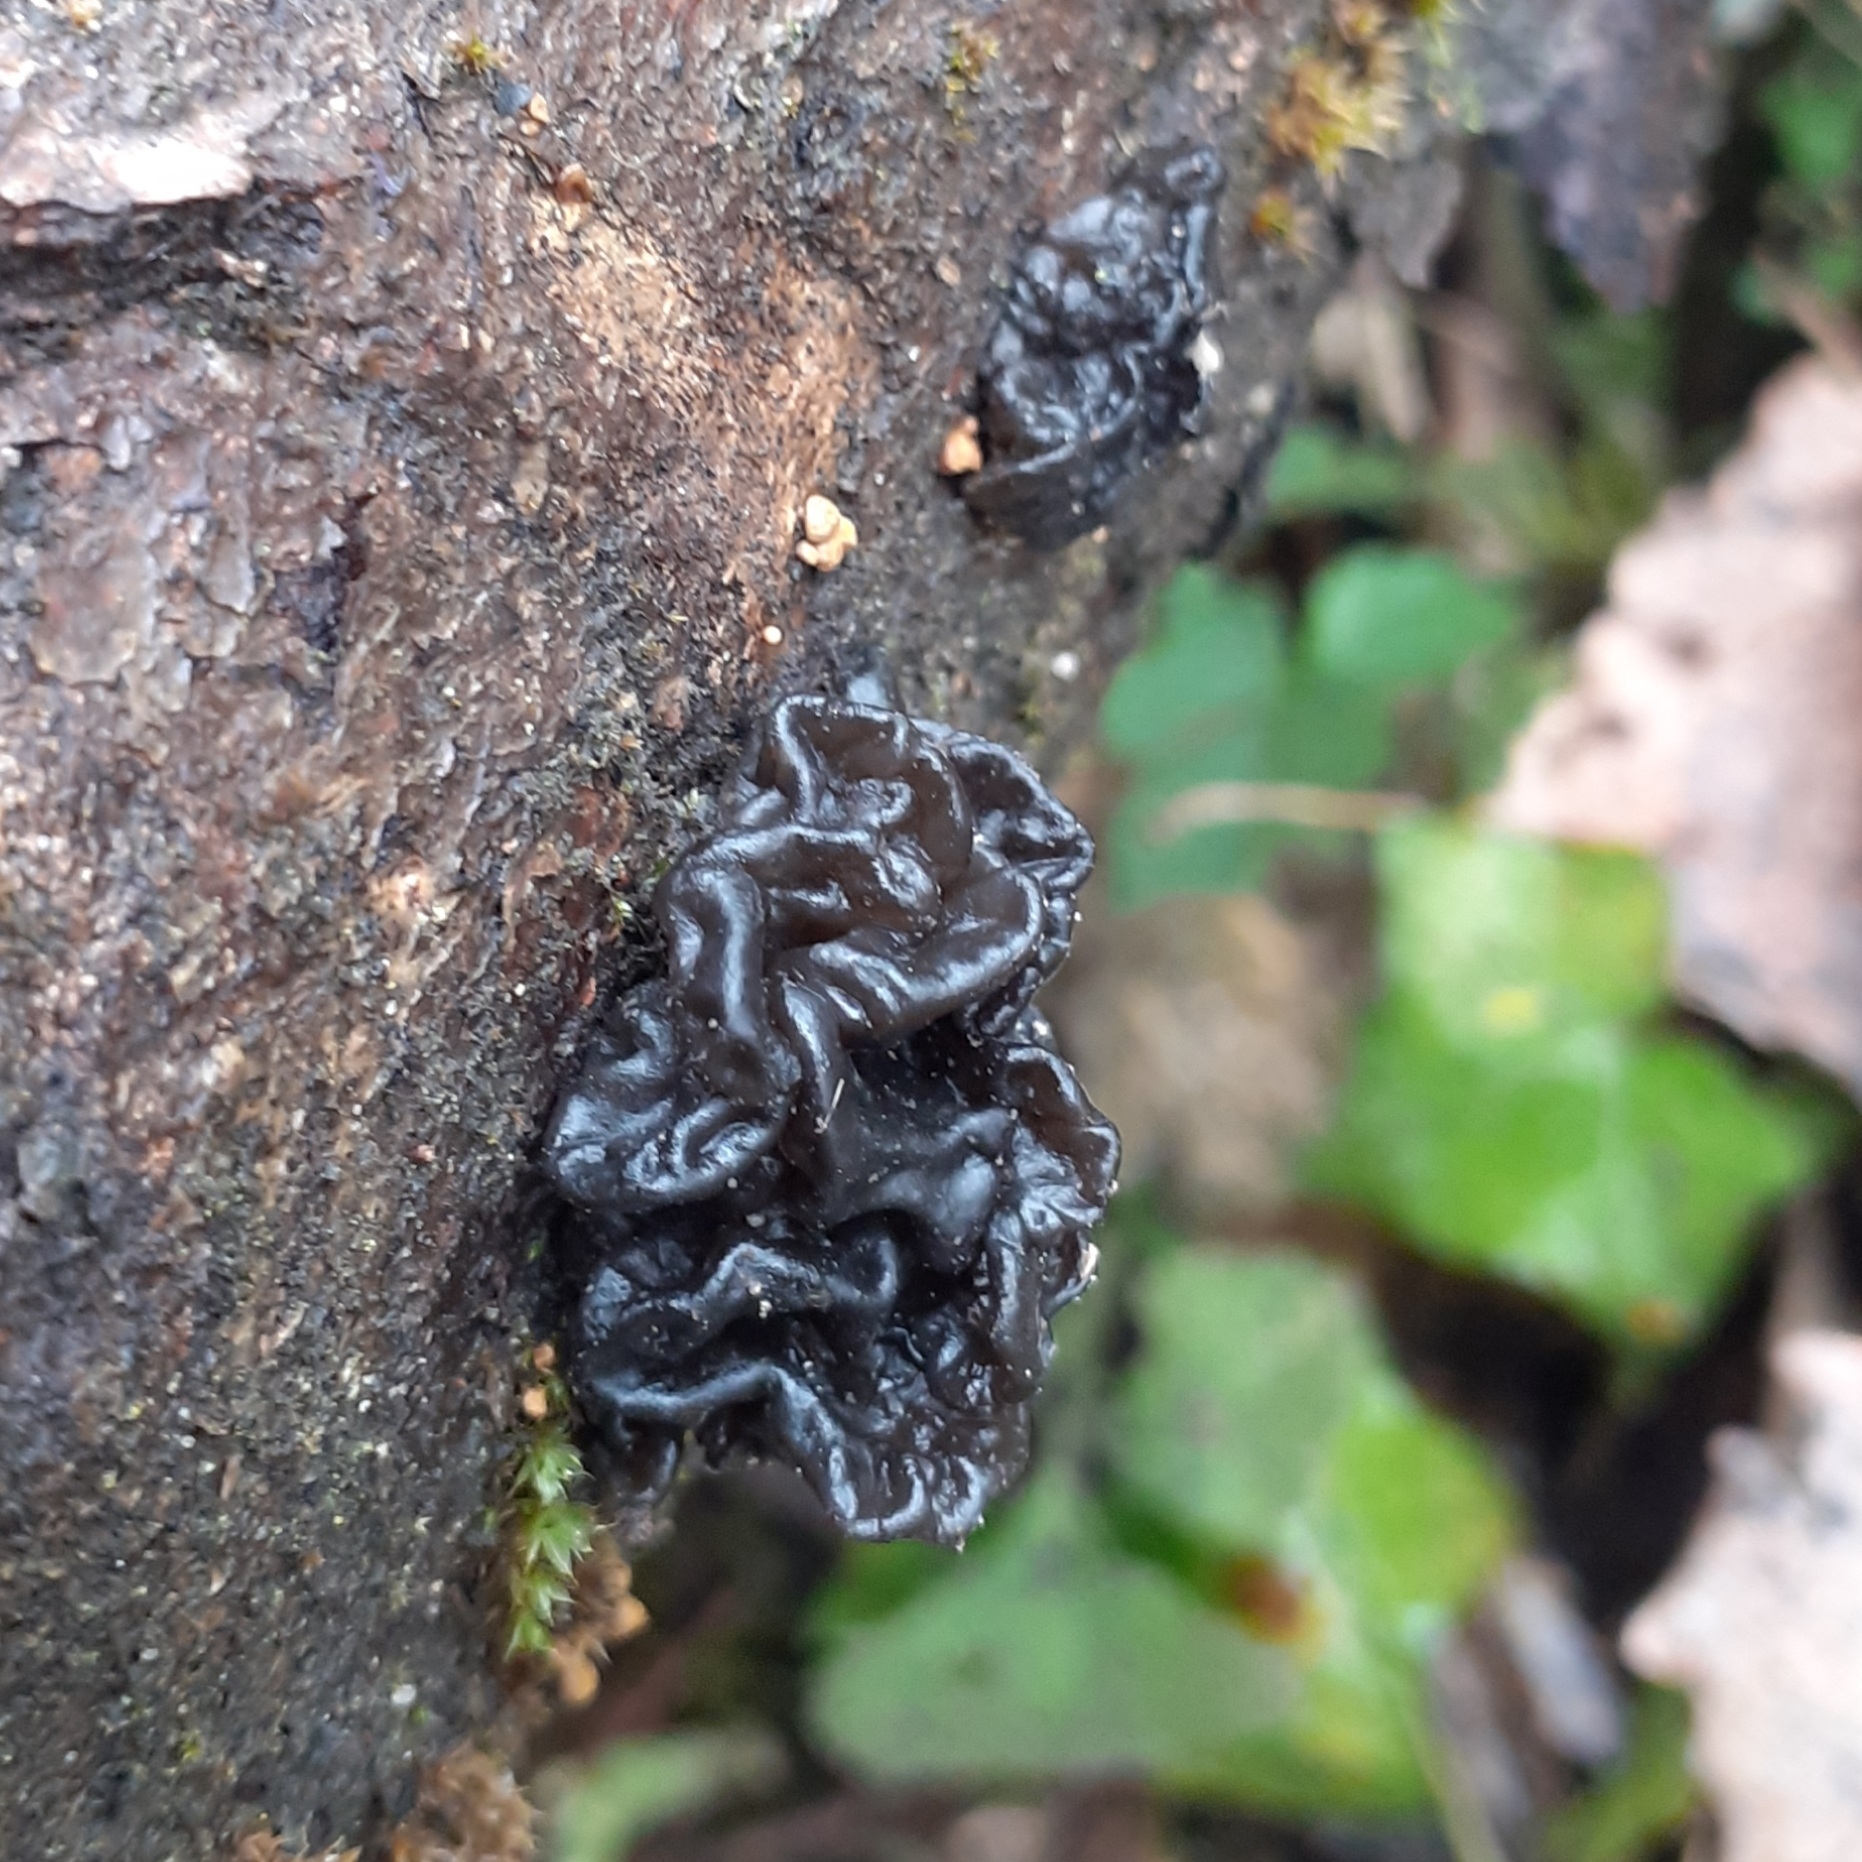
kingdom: Fungi
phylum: Basidiomycota
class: Agaricomycetes
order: Auriculariales
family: Auriculariaceae
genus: Exidia
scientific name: Exidia glandulosa
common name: Witches' butter
